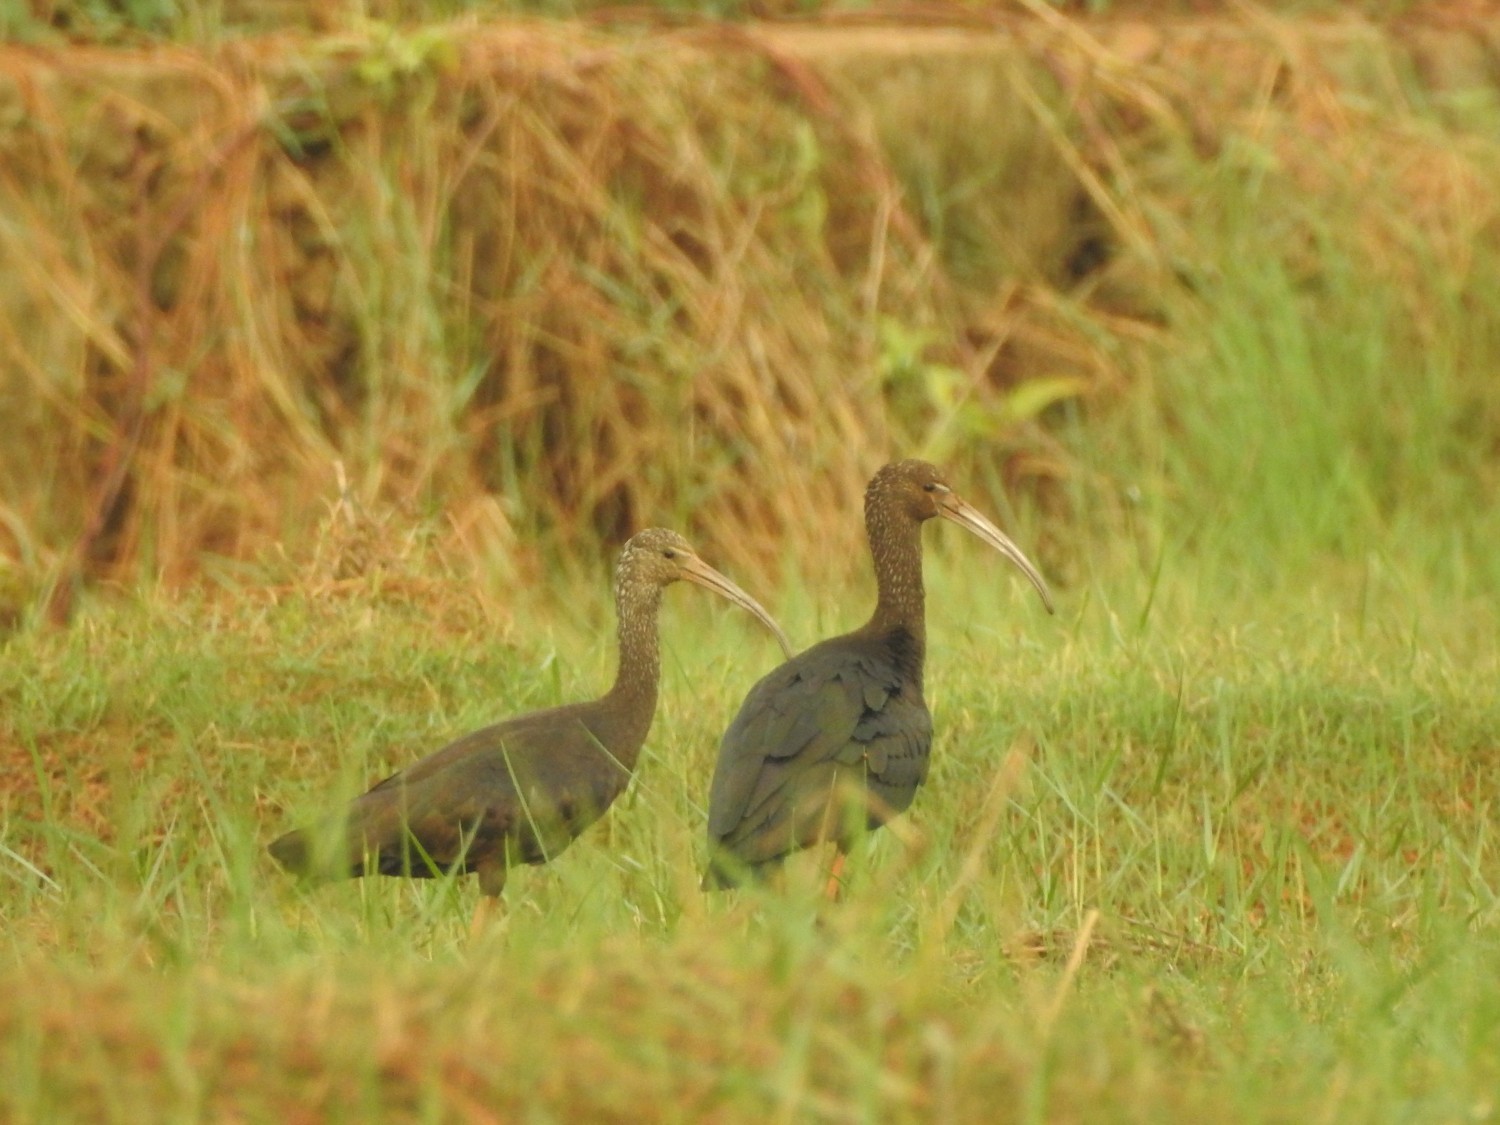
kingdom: Animalia
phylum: Chordata
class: Aves
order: Pelecaniformes
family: Threskiornithidae
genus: Plegadis
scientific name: Plegadis falcinellus
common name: Glossy ibis
